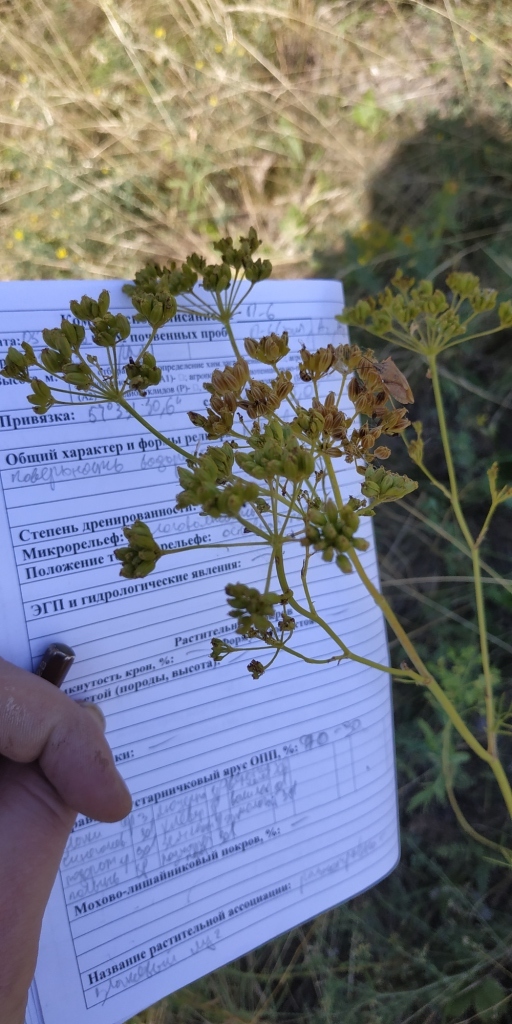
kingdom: Plantae
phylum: Tracheophyta
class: Magnoliopsida
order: Apiales
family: Apiaceae
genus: Seseli
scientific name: Seseli strictum
